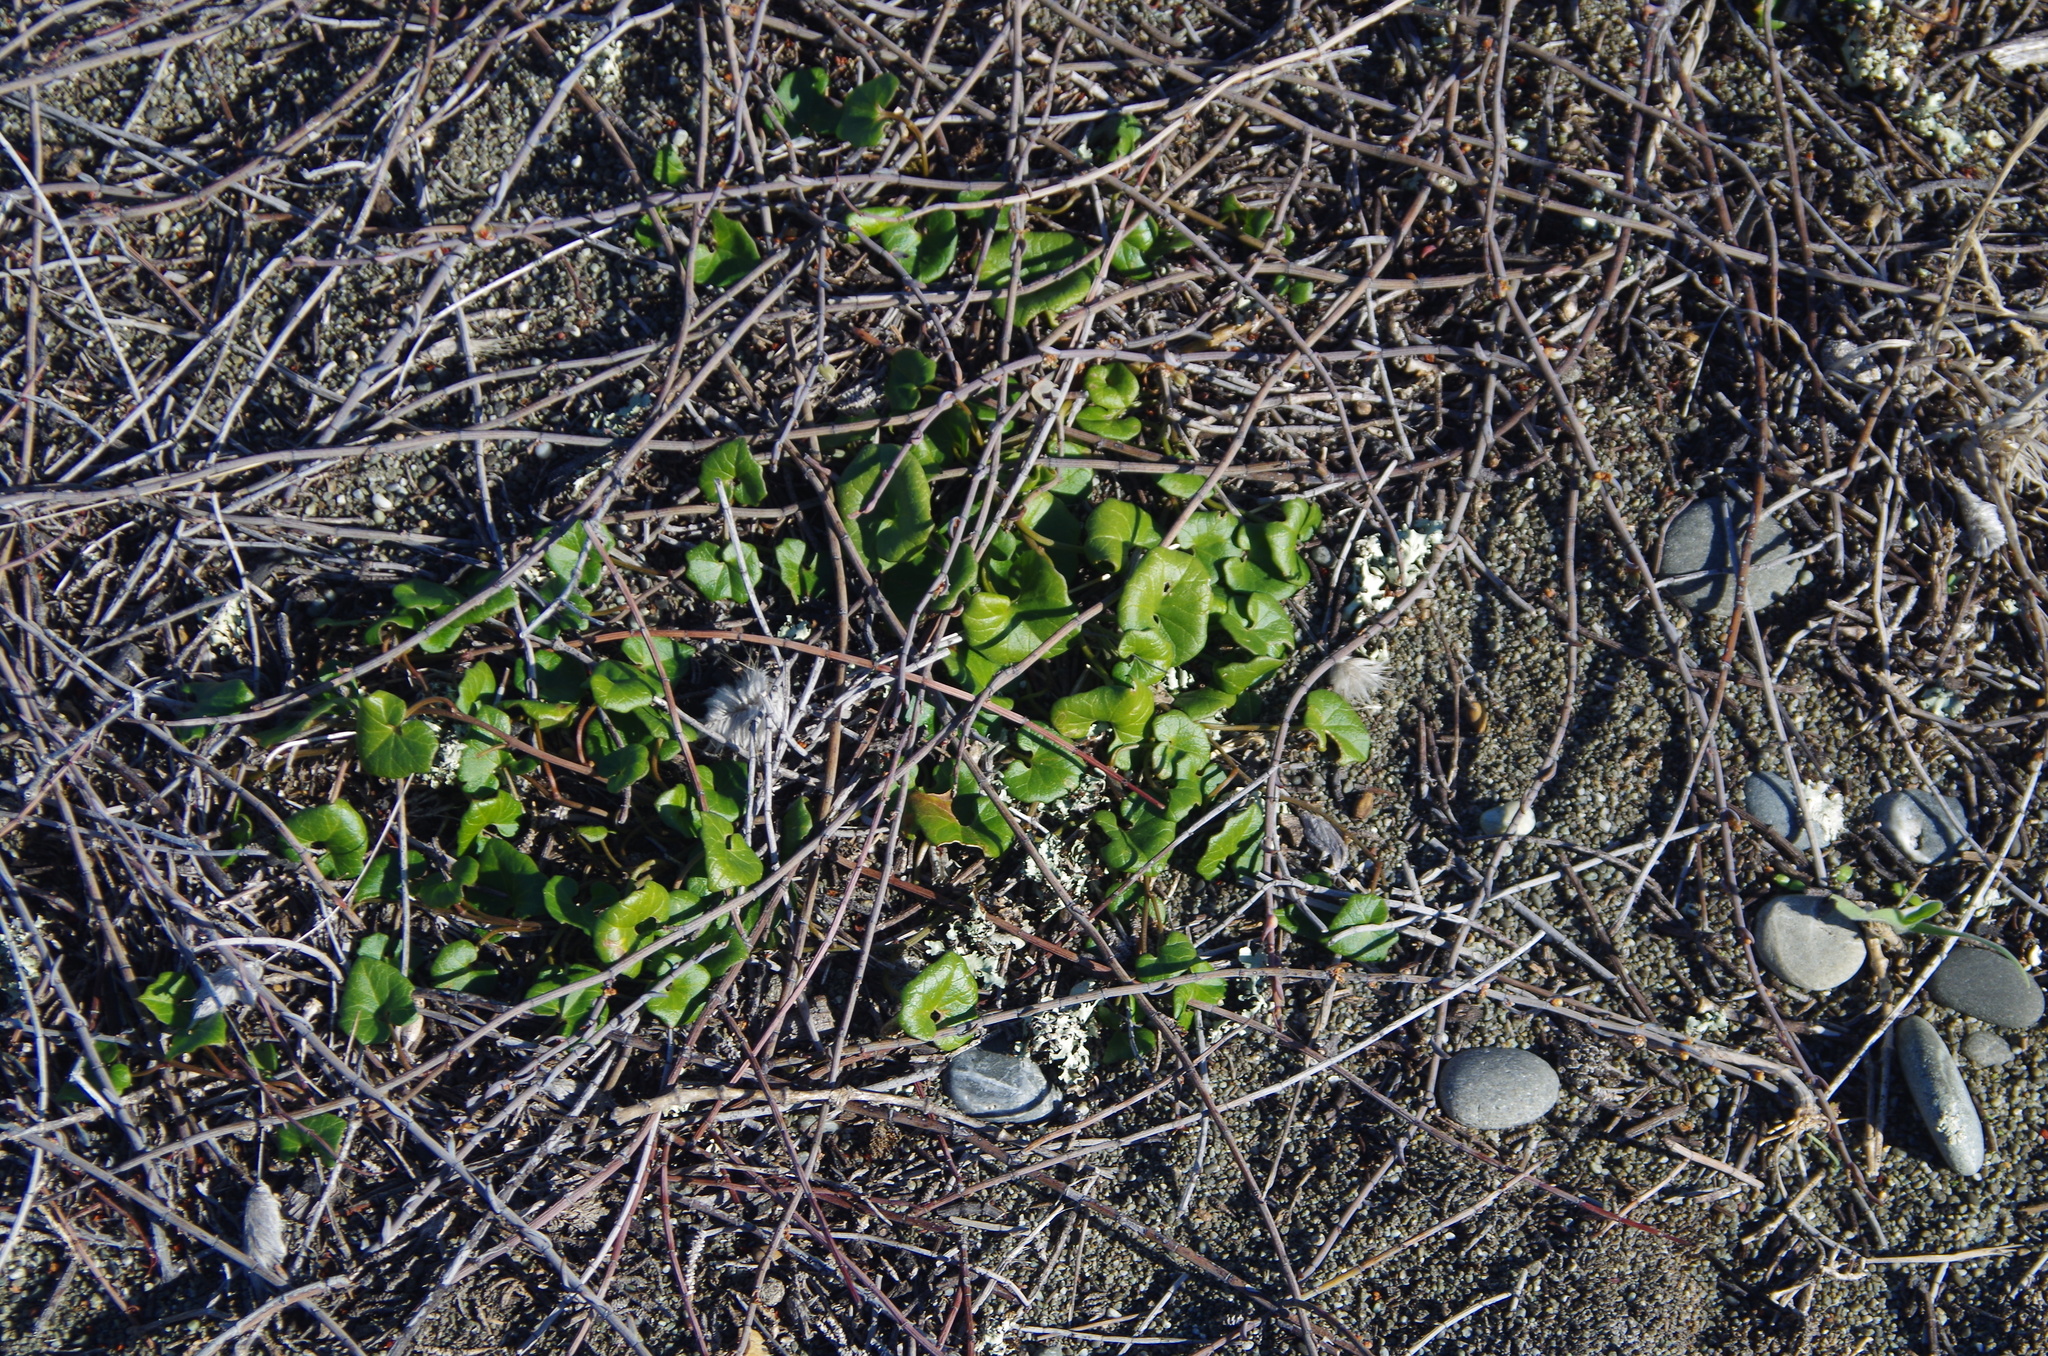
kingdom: Plantae
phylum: Tracheophyta
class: Magnoliopsida
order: Solanales
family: Convolvulaceae
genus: Calystegia
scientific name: Calystegia soldanella
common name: Sea bindweed
